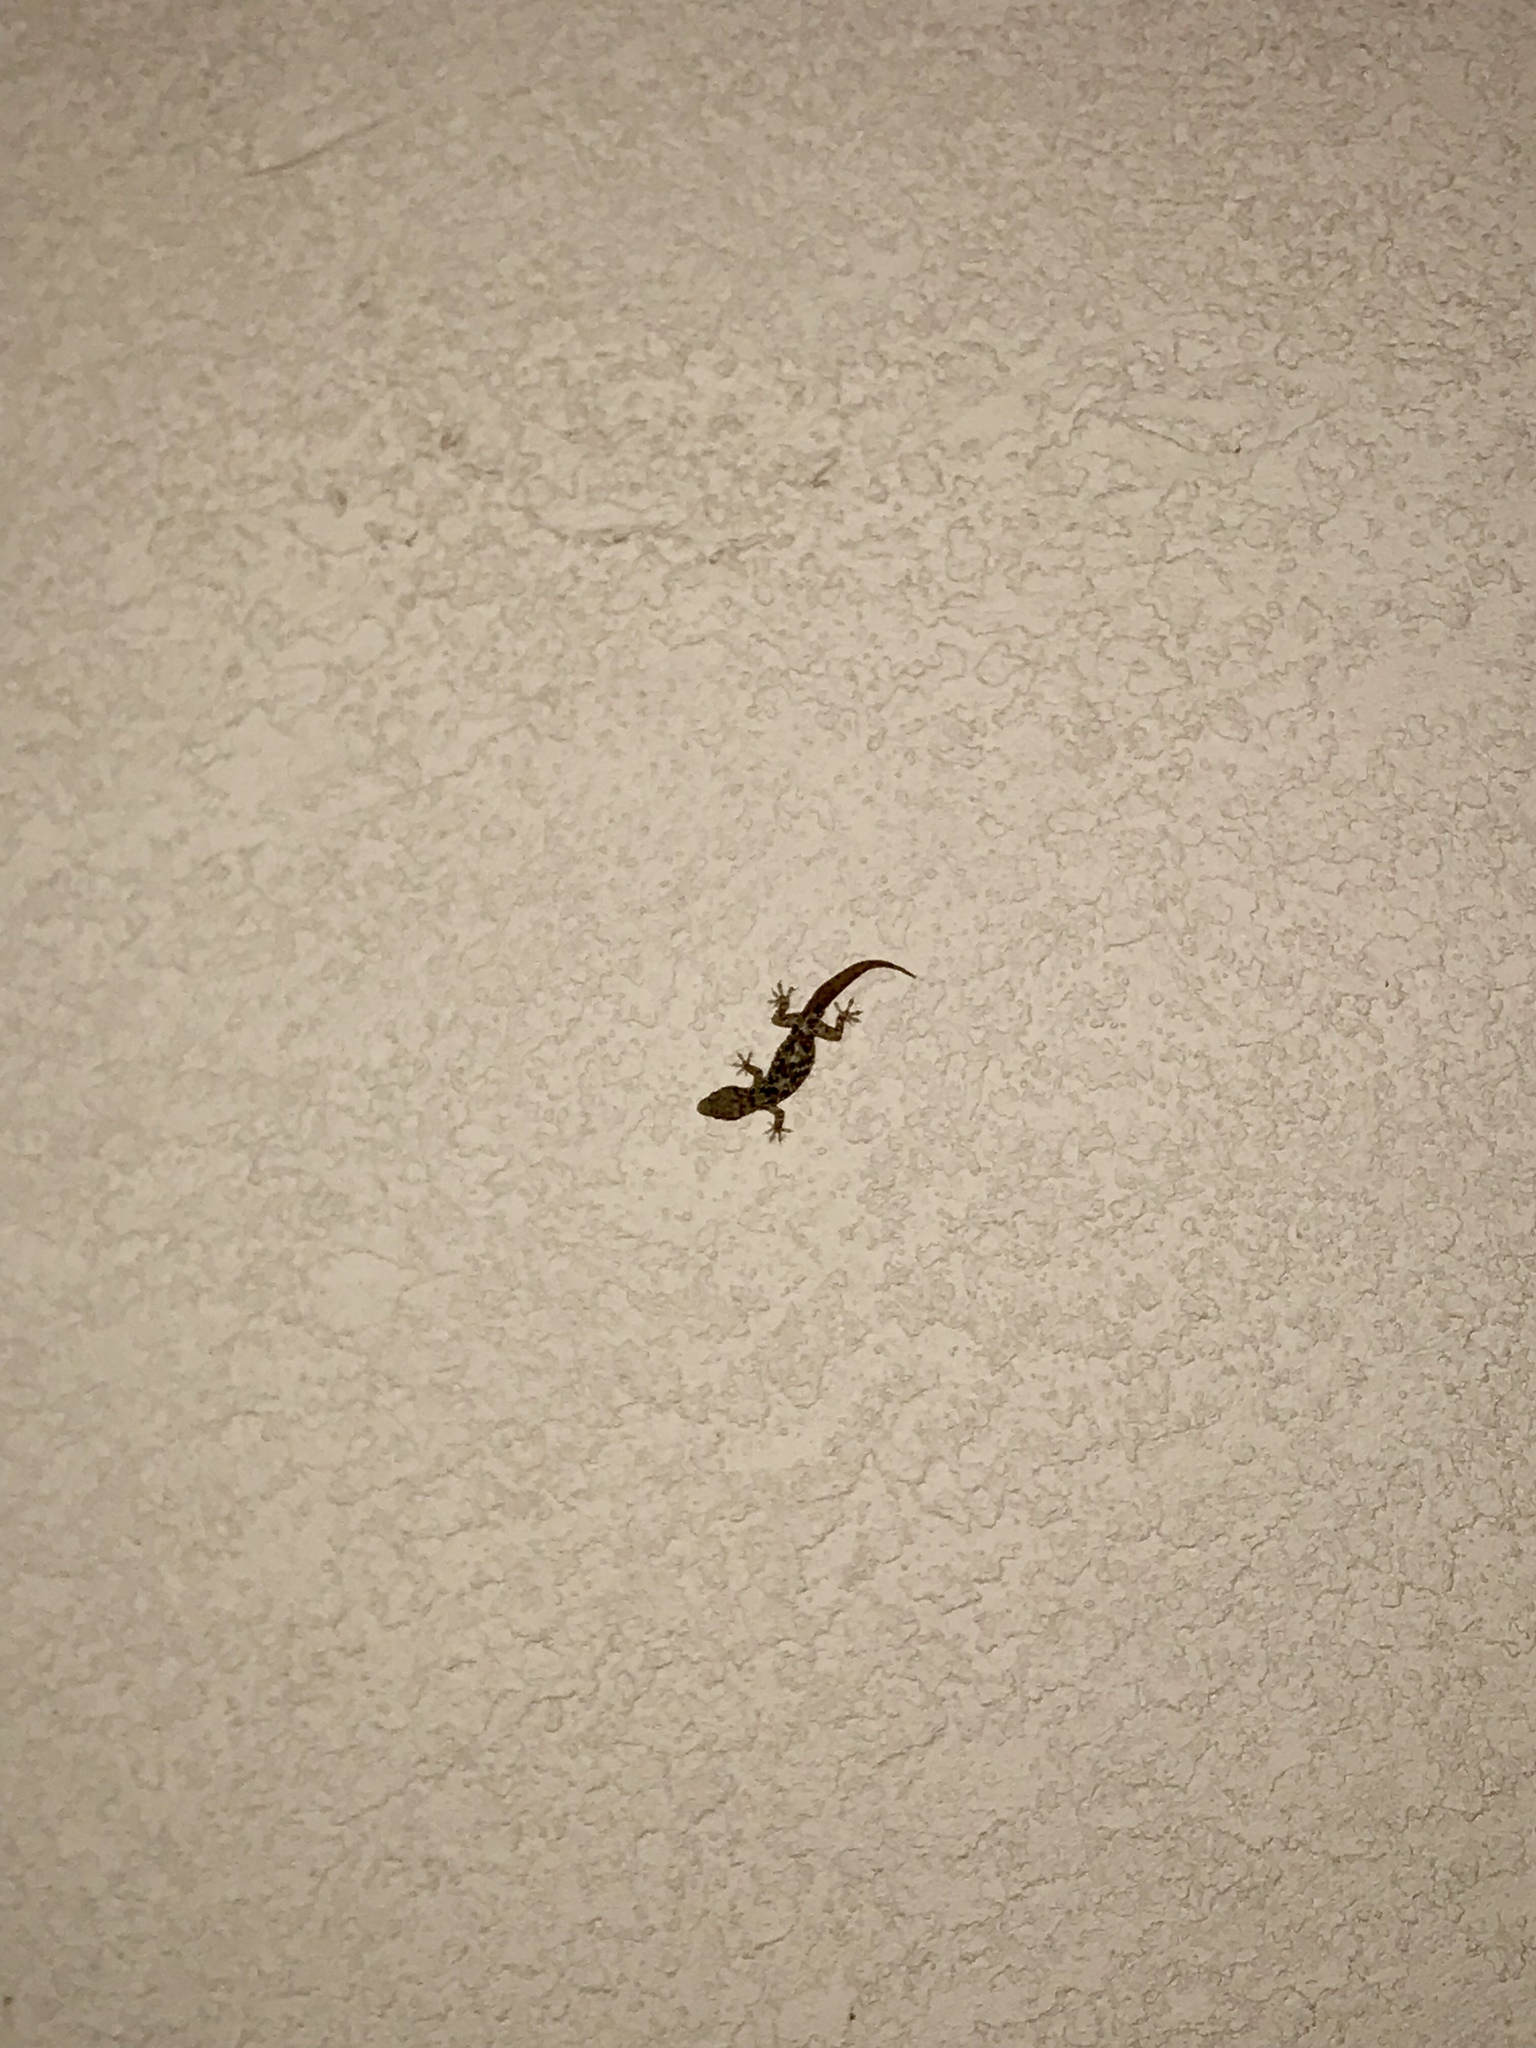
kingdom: Animalia
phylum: Chordata
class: Squamata
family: Gekkonidae
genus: Hemidactylus
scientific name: Hemidactylus turcicus
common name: Turkish gecko
